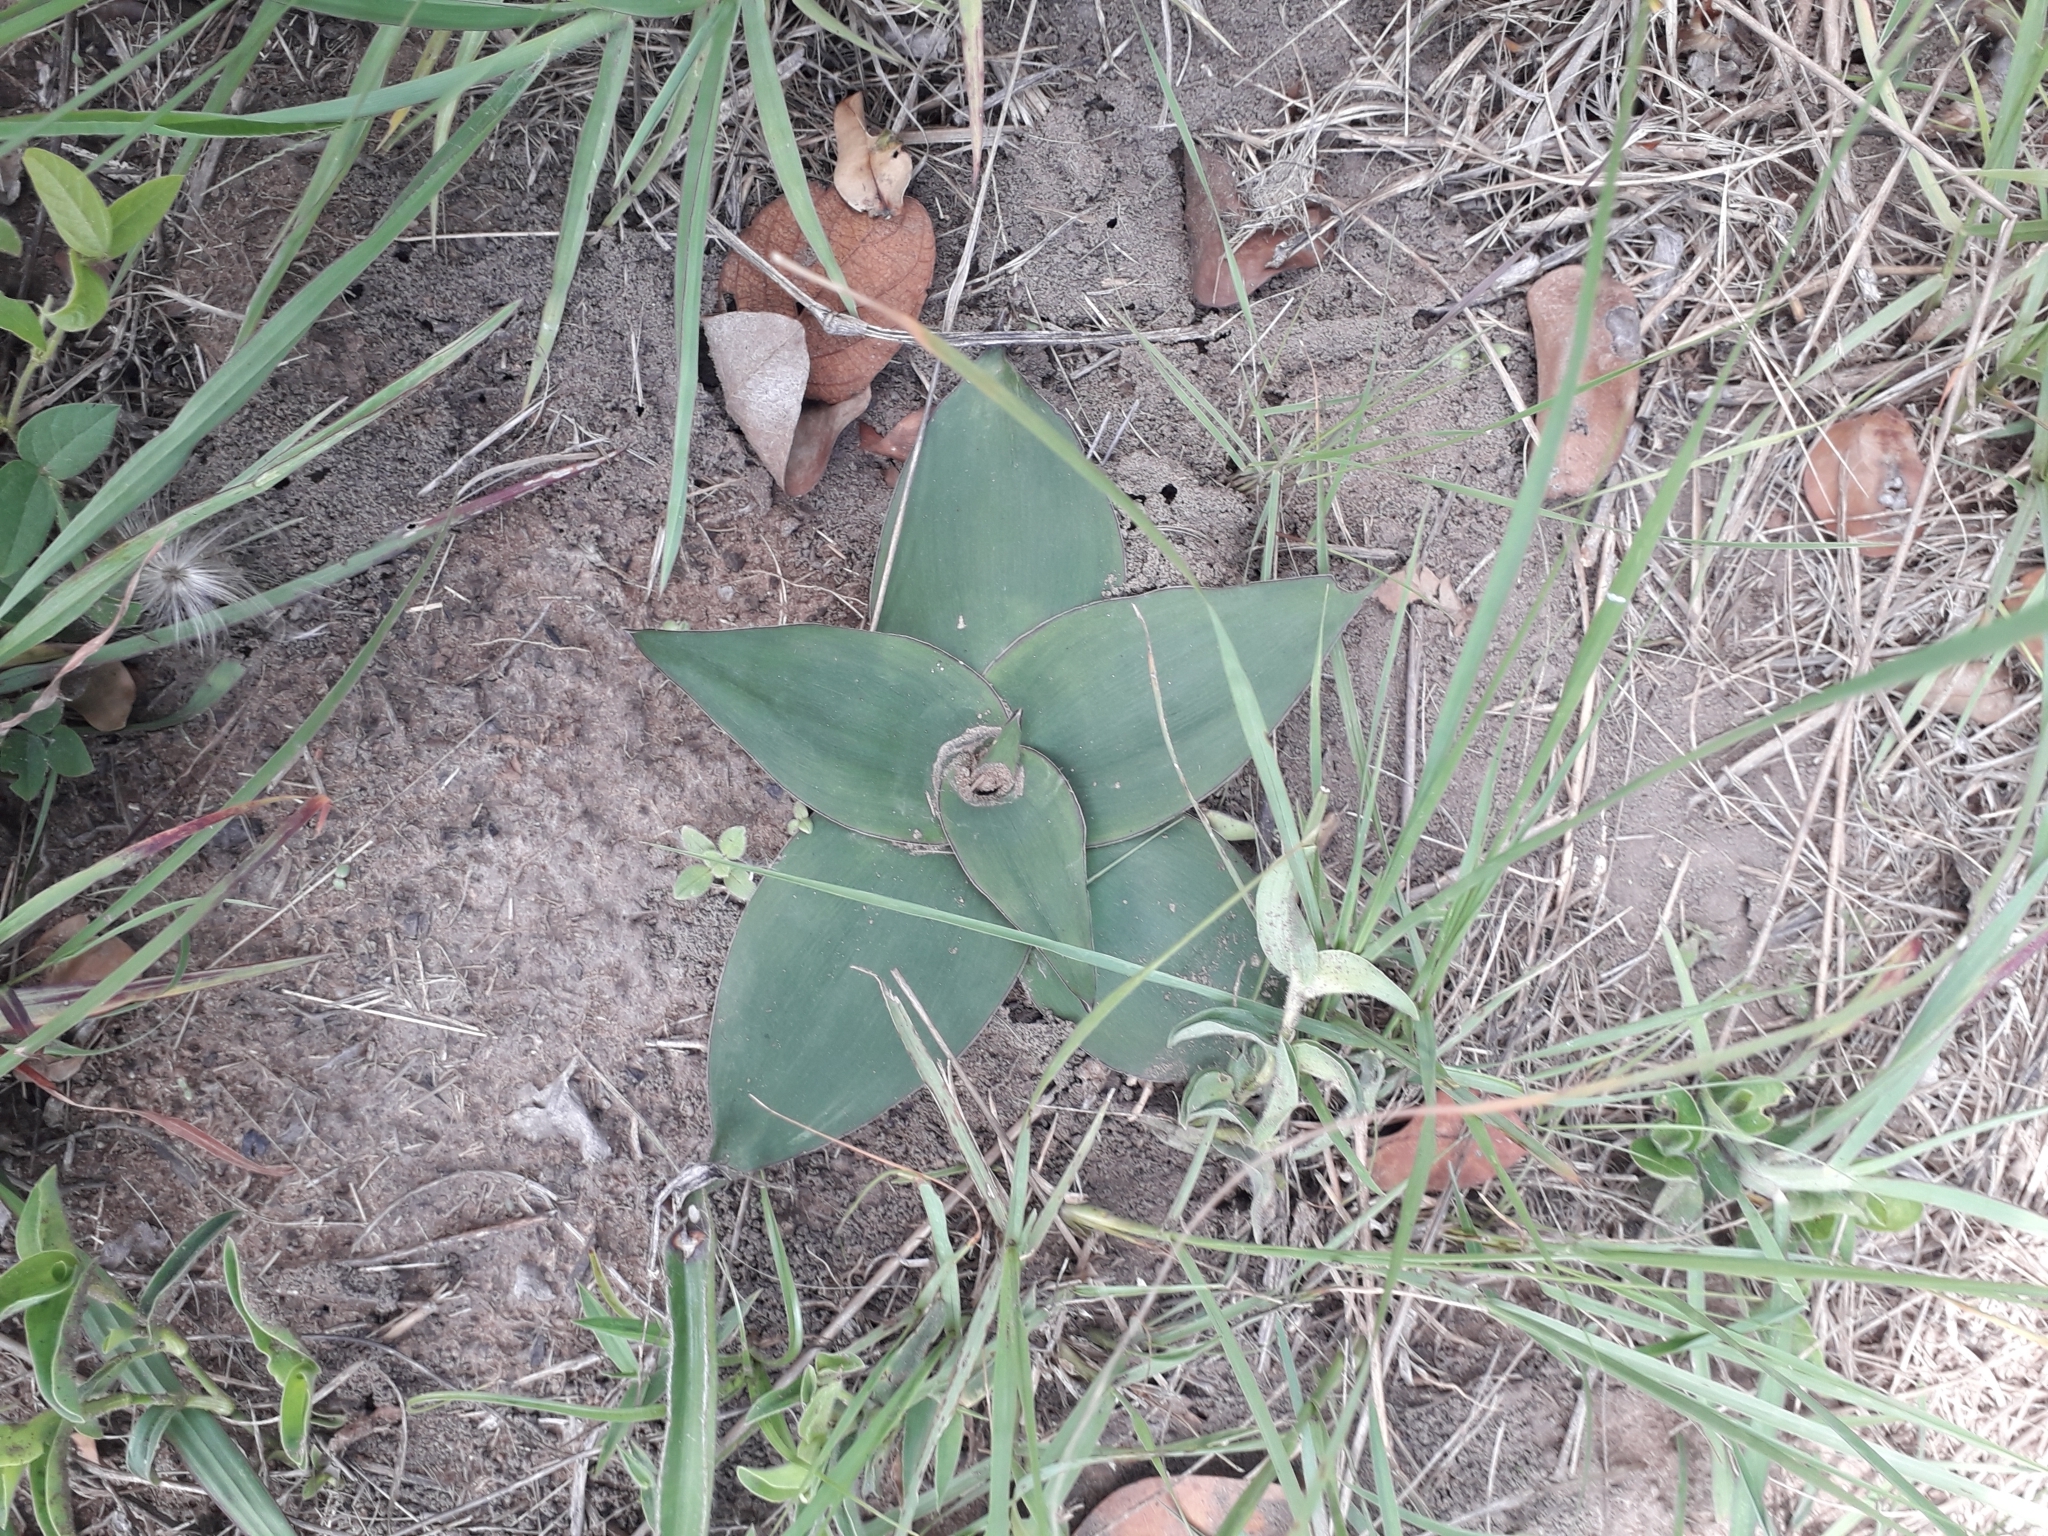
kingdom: Plantae
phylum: Tracheophyta
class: Liliopsida
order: Asparagales
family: Asparagaceae
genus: Ledebouria
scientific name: Ledebouria ovatifolia
